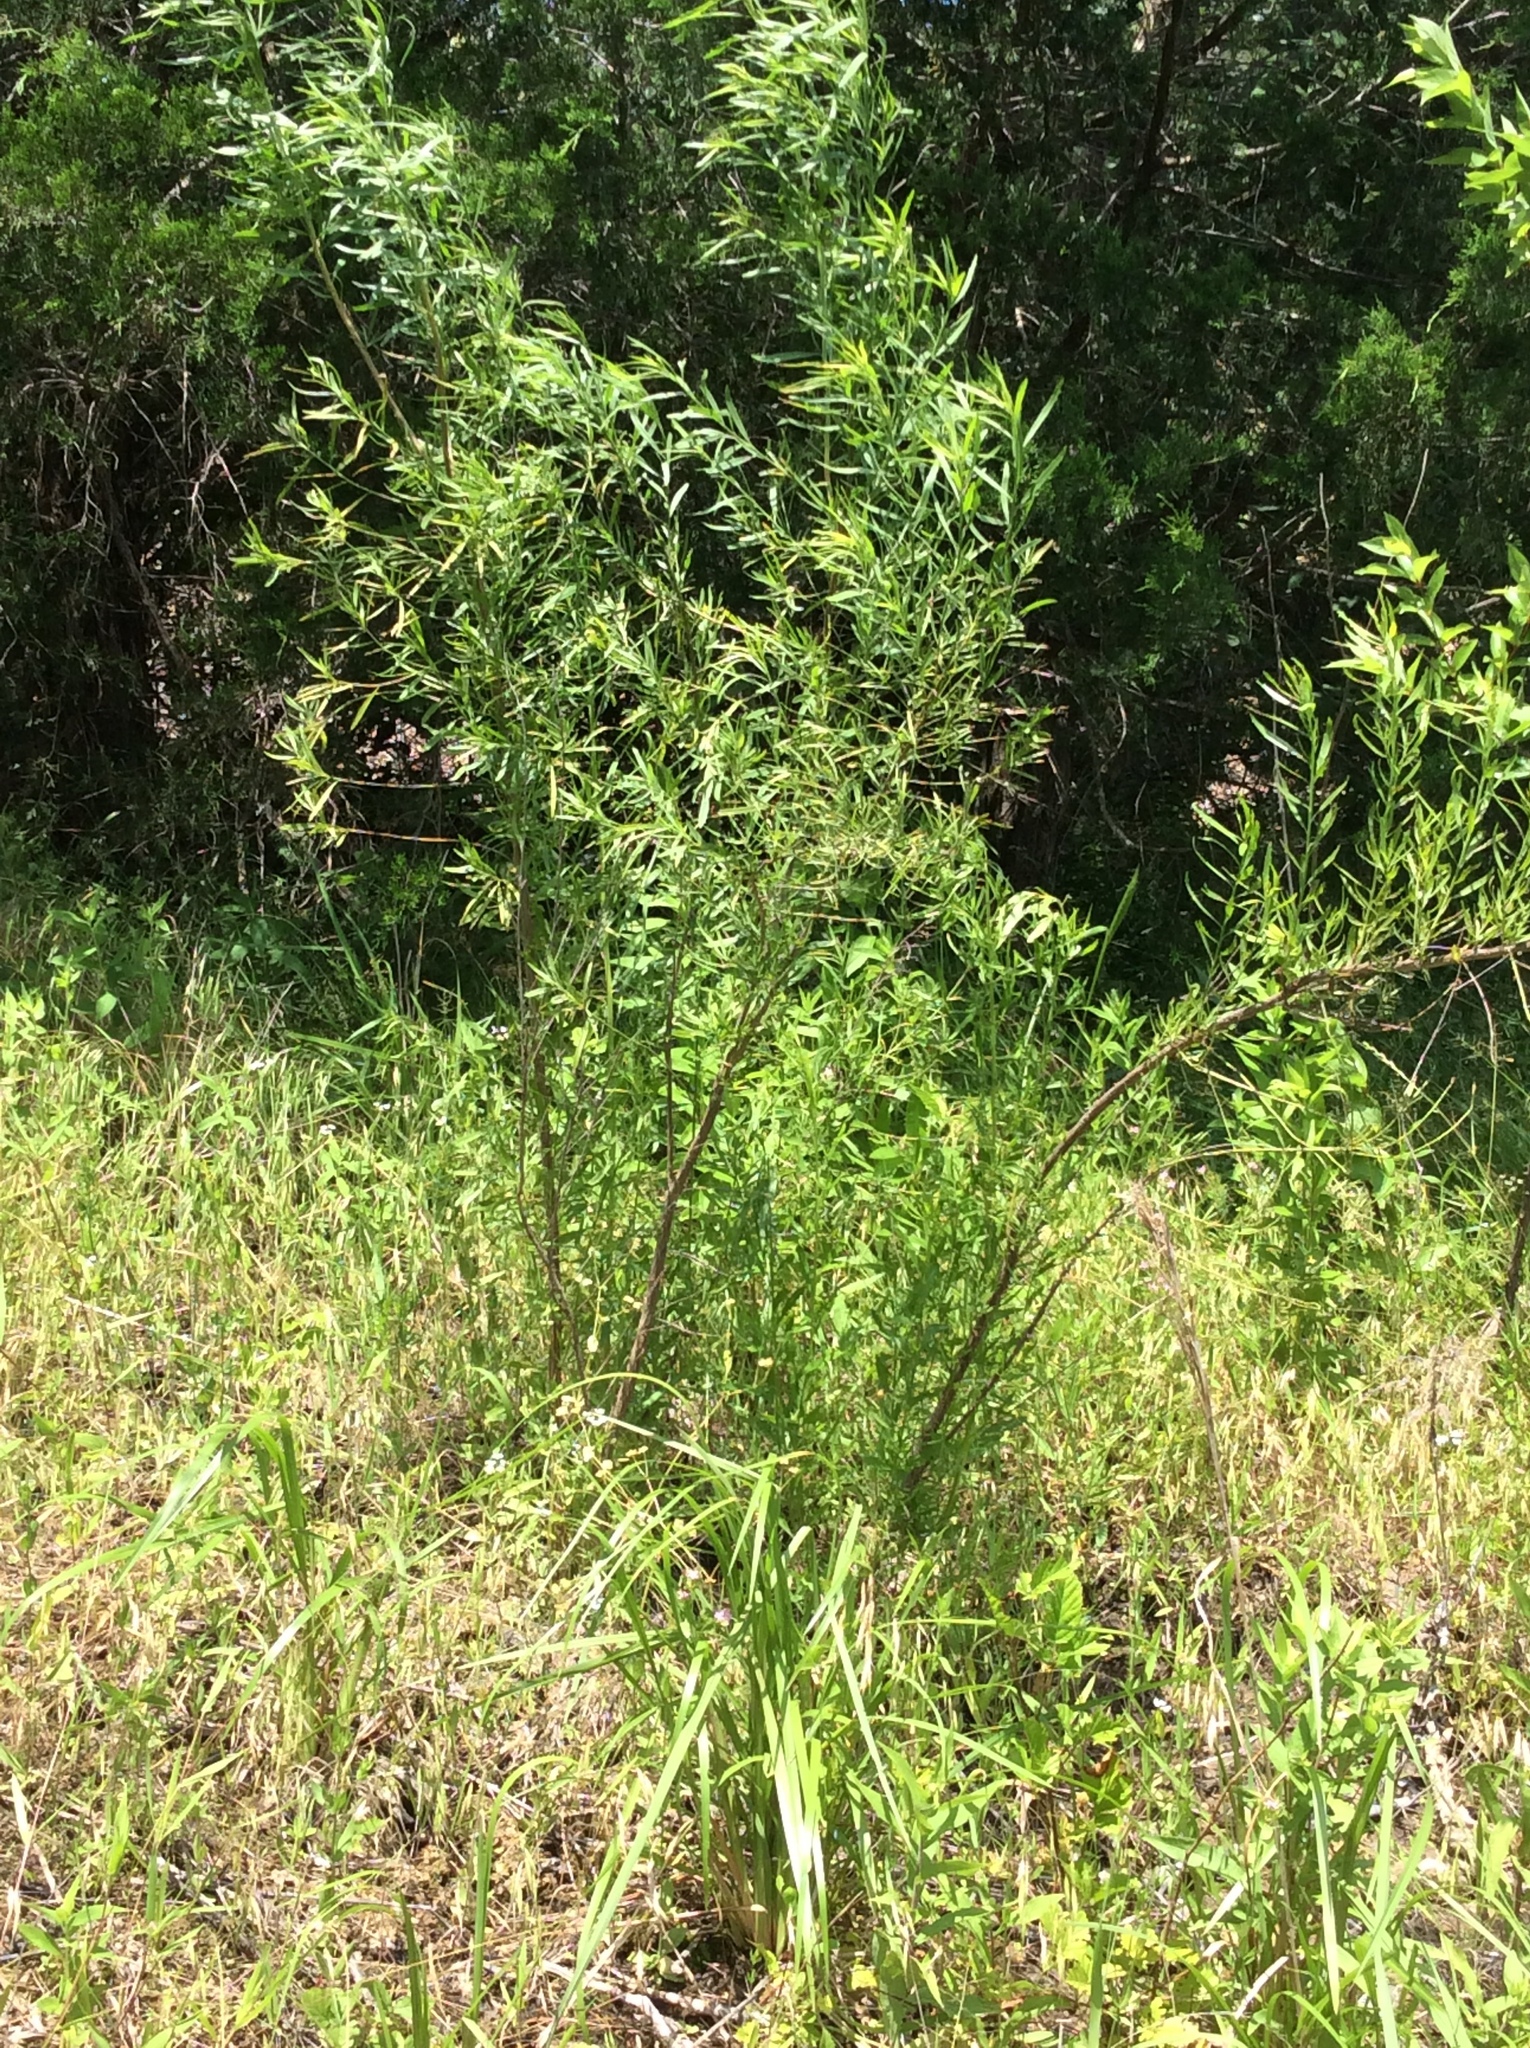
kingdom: Plantae
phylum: Tracheophyta
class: Magnoliopsida
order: Asterales
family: Asteraceae
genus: Baccharis
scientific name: Baccharis neglecta
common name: Roosevelt-weed
